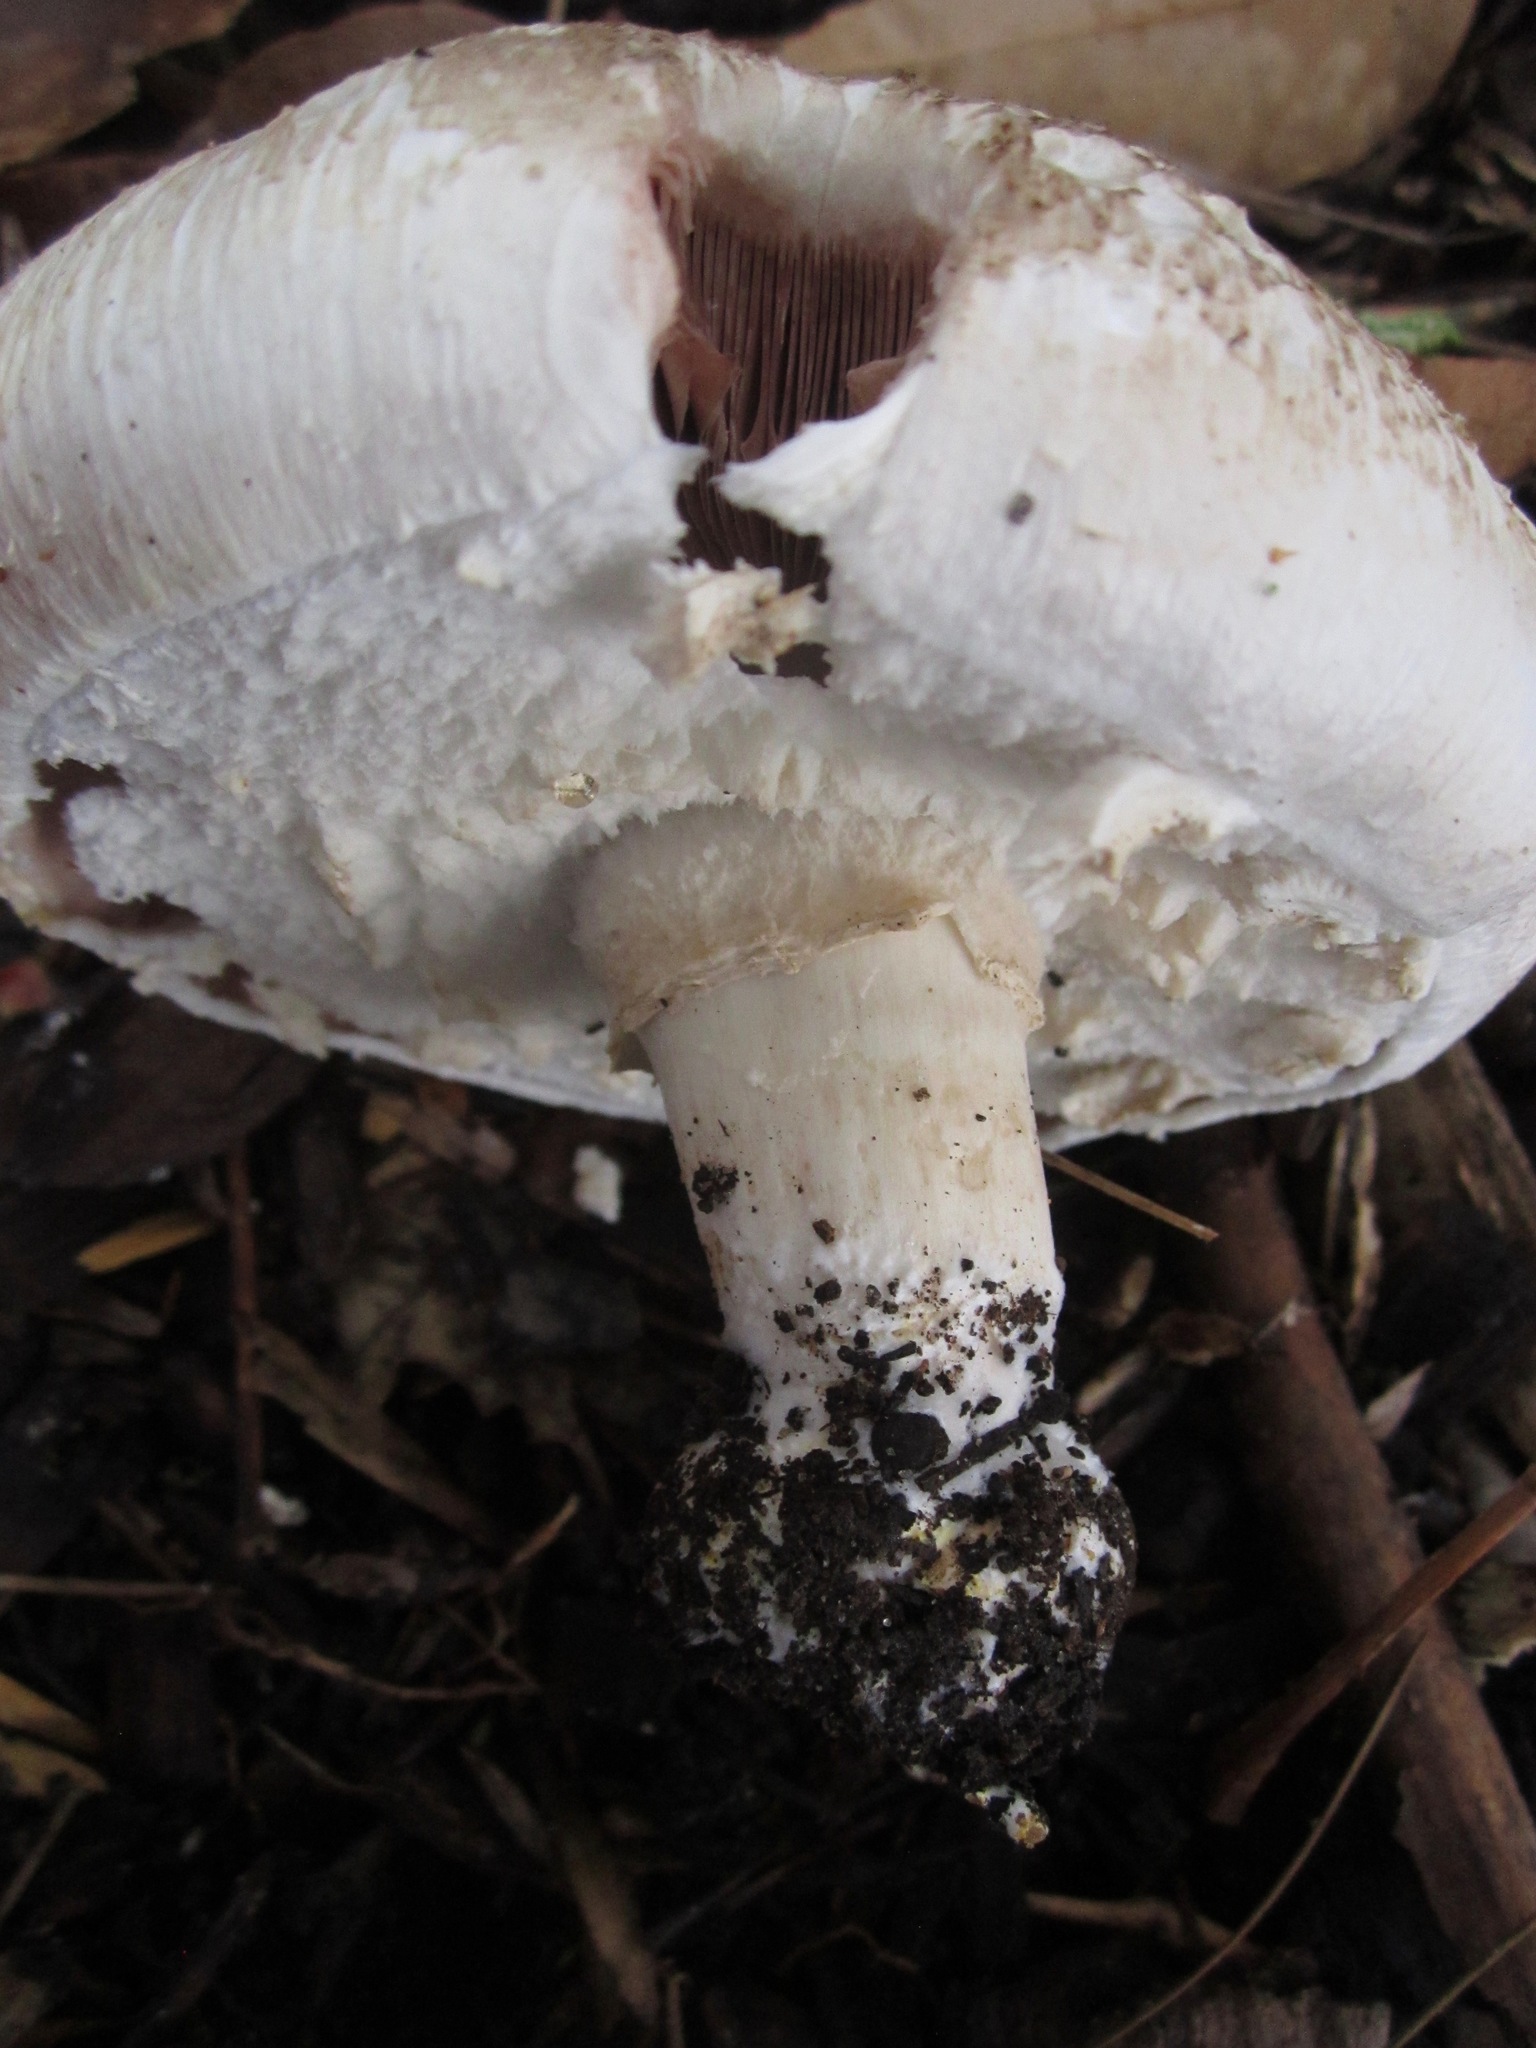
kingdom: Fungi
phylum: Basidiomycota
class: Agaricomycetes
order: Agaricales
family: Agaricaceae
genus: Agaricus
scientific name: Agaricus xanthodermus
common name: Yellow stainer
